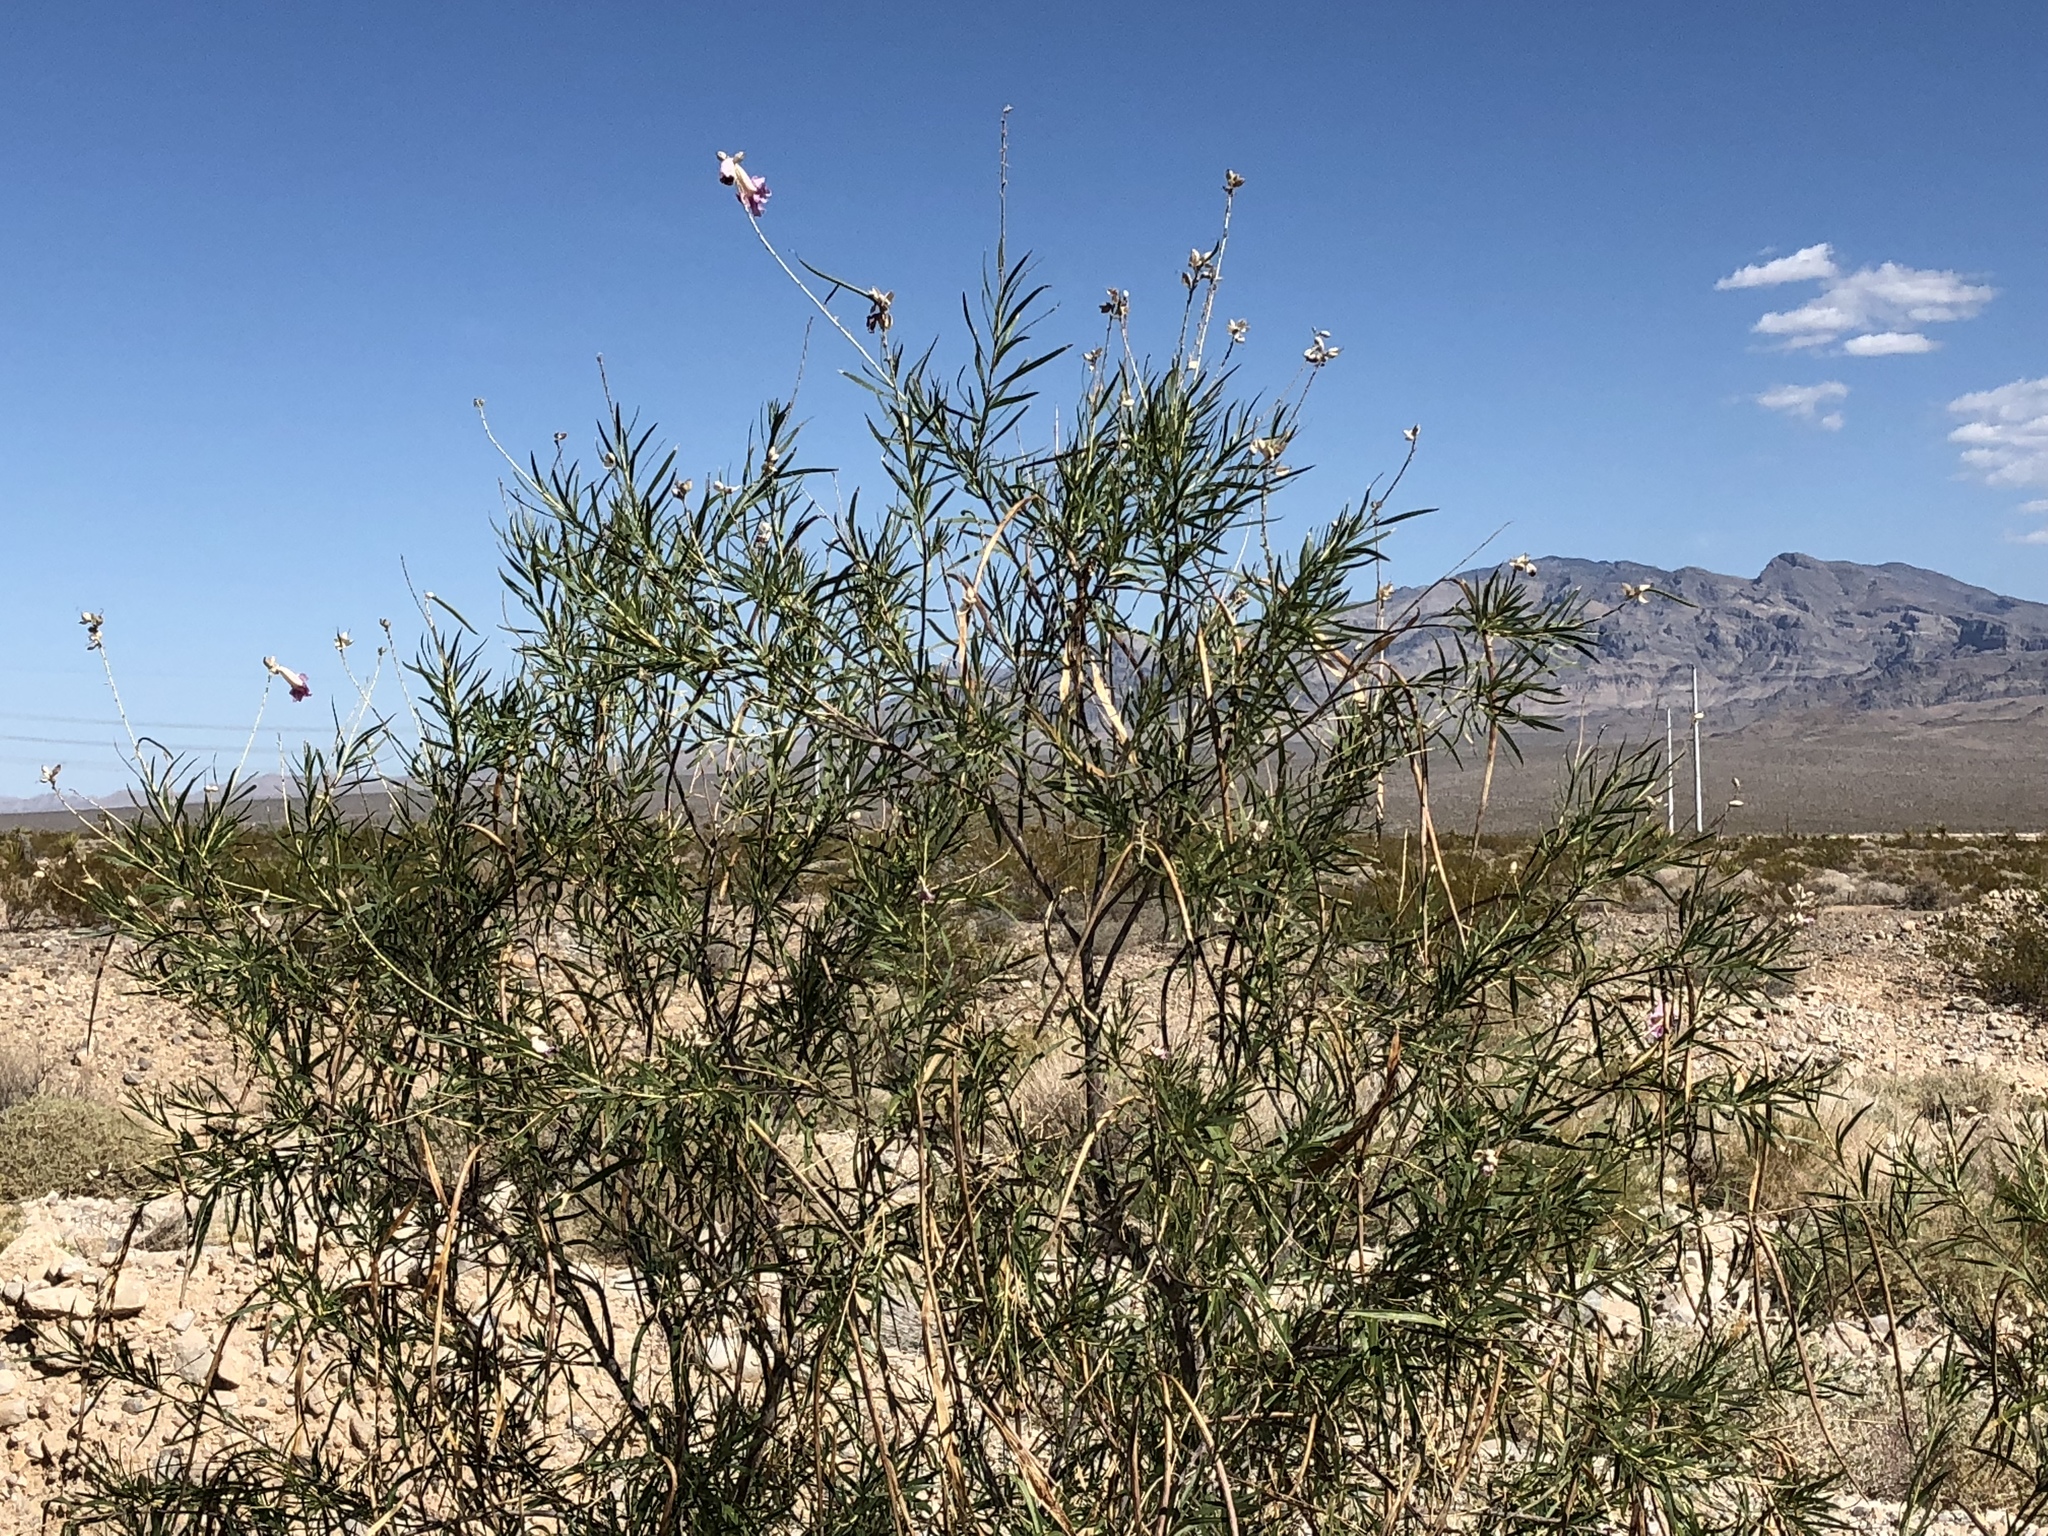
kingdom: Plantae
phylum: Tracheophyta
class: Magnoliopsida
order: Lamiales
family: Bignoniaceae
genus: Chilopsis
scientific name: Chilopsis linearis
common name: Desert-willow
